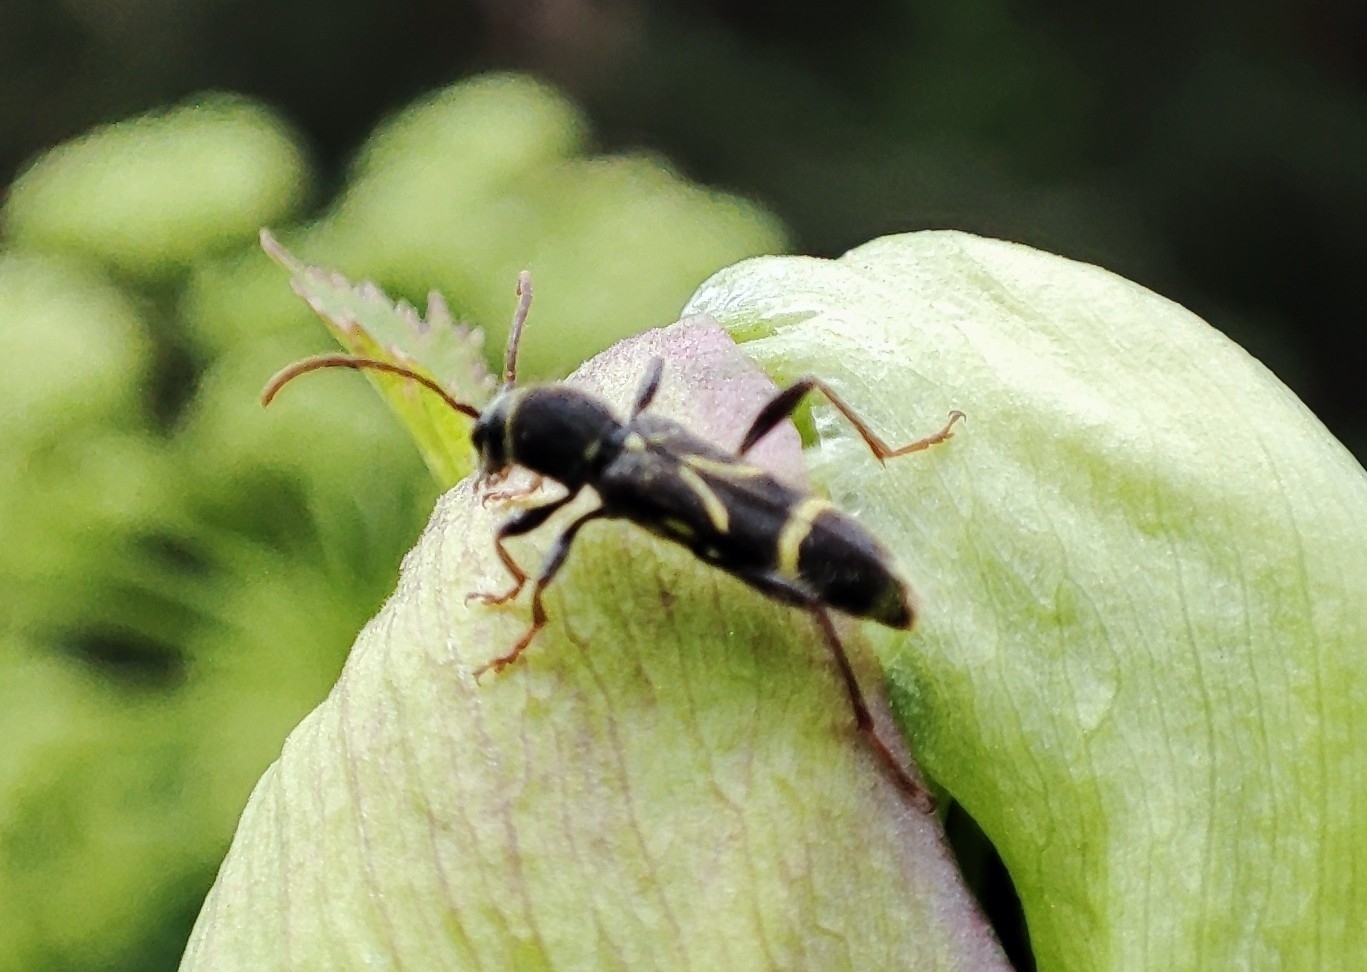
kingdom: Animalia
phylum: Arthropoda
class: Insecta
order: Coleoptera
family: Cerambycidae
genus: Cyrtoclytus
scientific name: Cyrtoclytus capra
